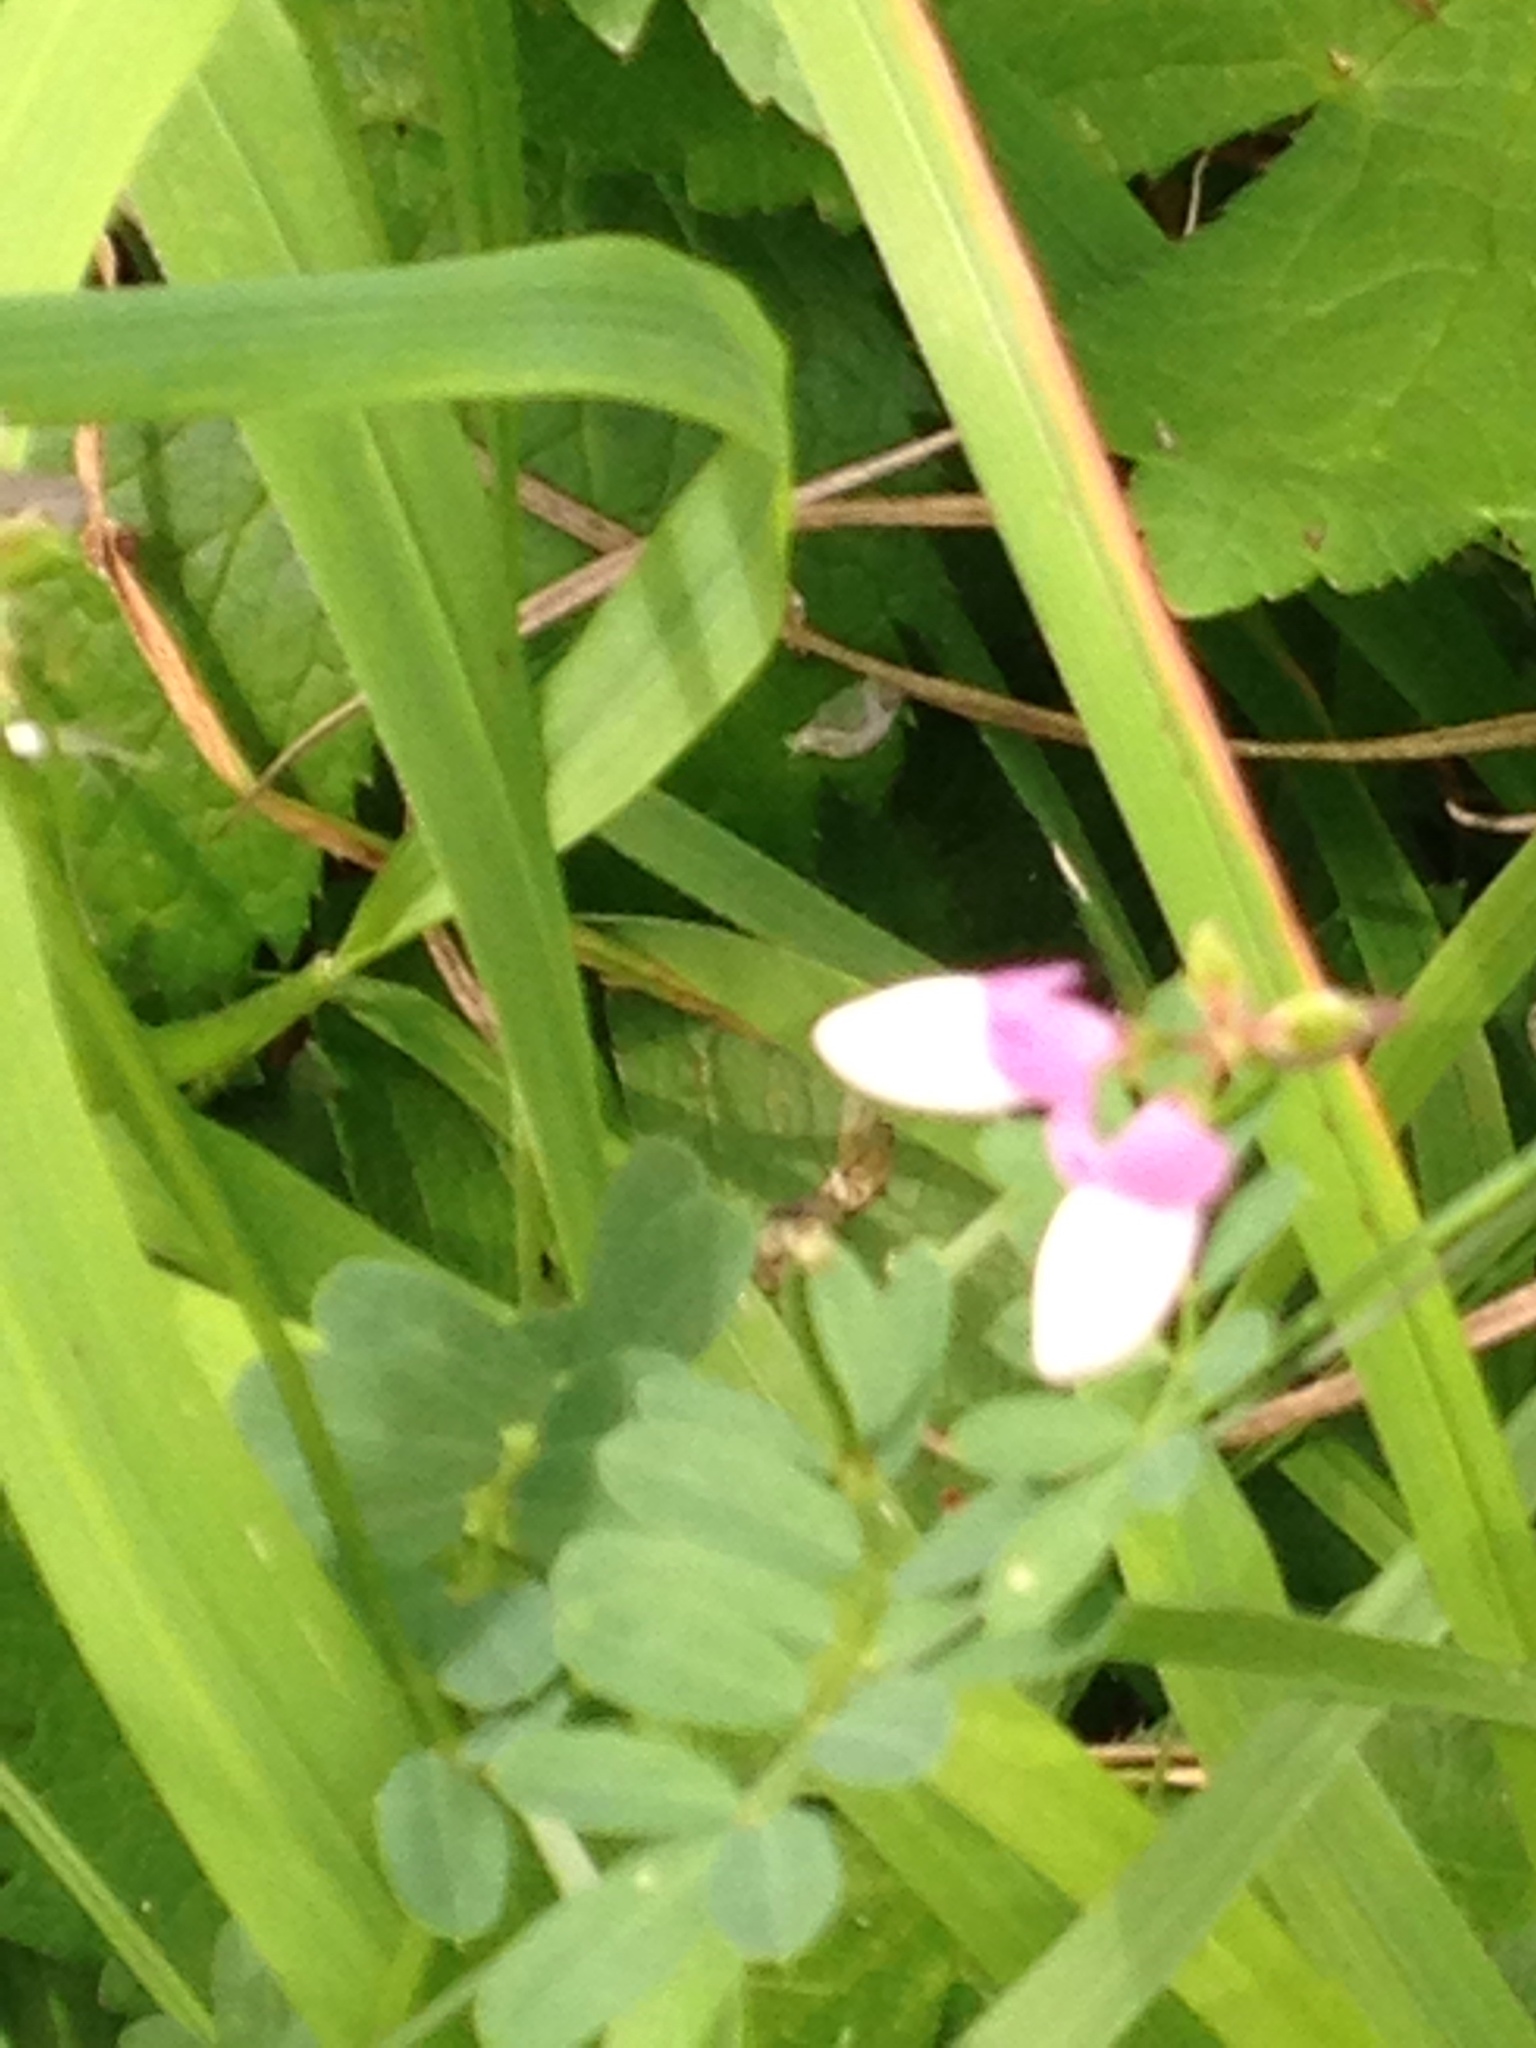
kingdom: Plantae
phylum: Tracheophyta
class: Magnoliopsida
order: Fabales
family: Fabaceae
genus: Coronilla
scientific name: Coronilla varia
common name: Crownvetch
